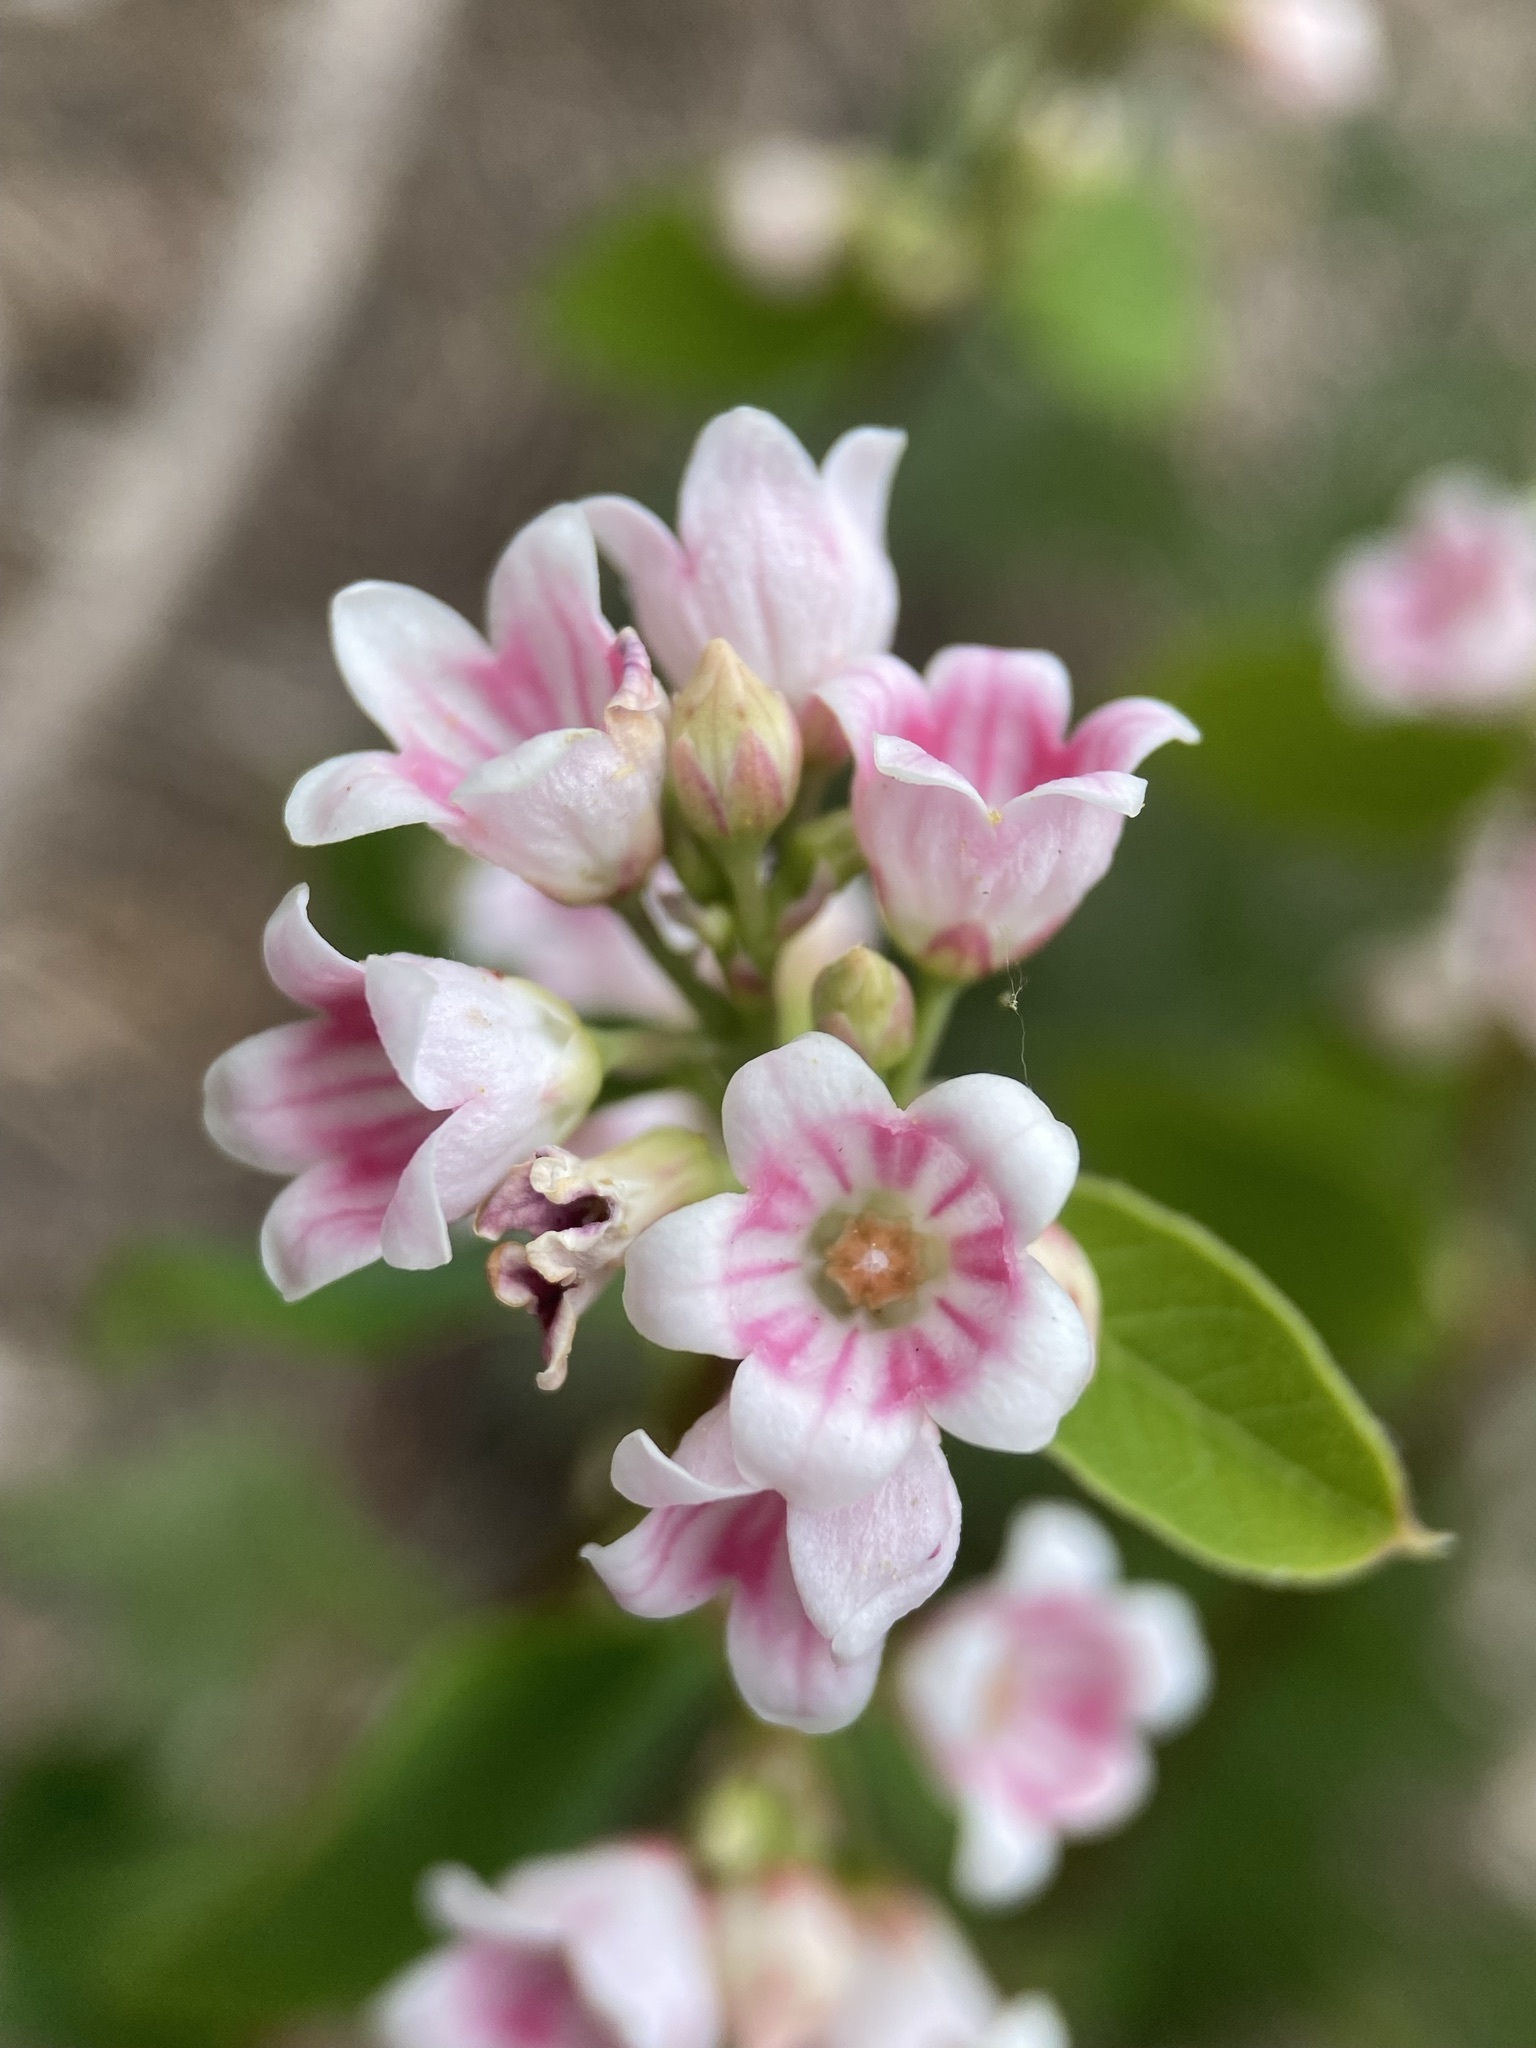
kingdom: Plantae
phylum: Tracheophyta
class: Magnoliopsida
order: Gentianales
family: Apocynaceae
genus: Apocynum
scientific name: Apocynum androsaemifolium
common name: Spreading dogbane
